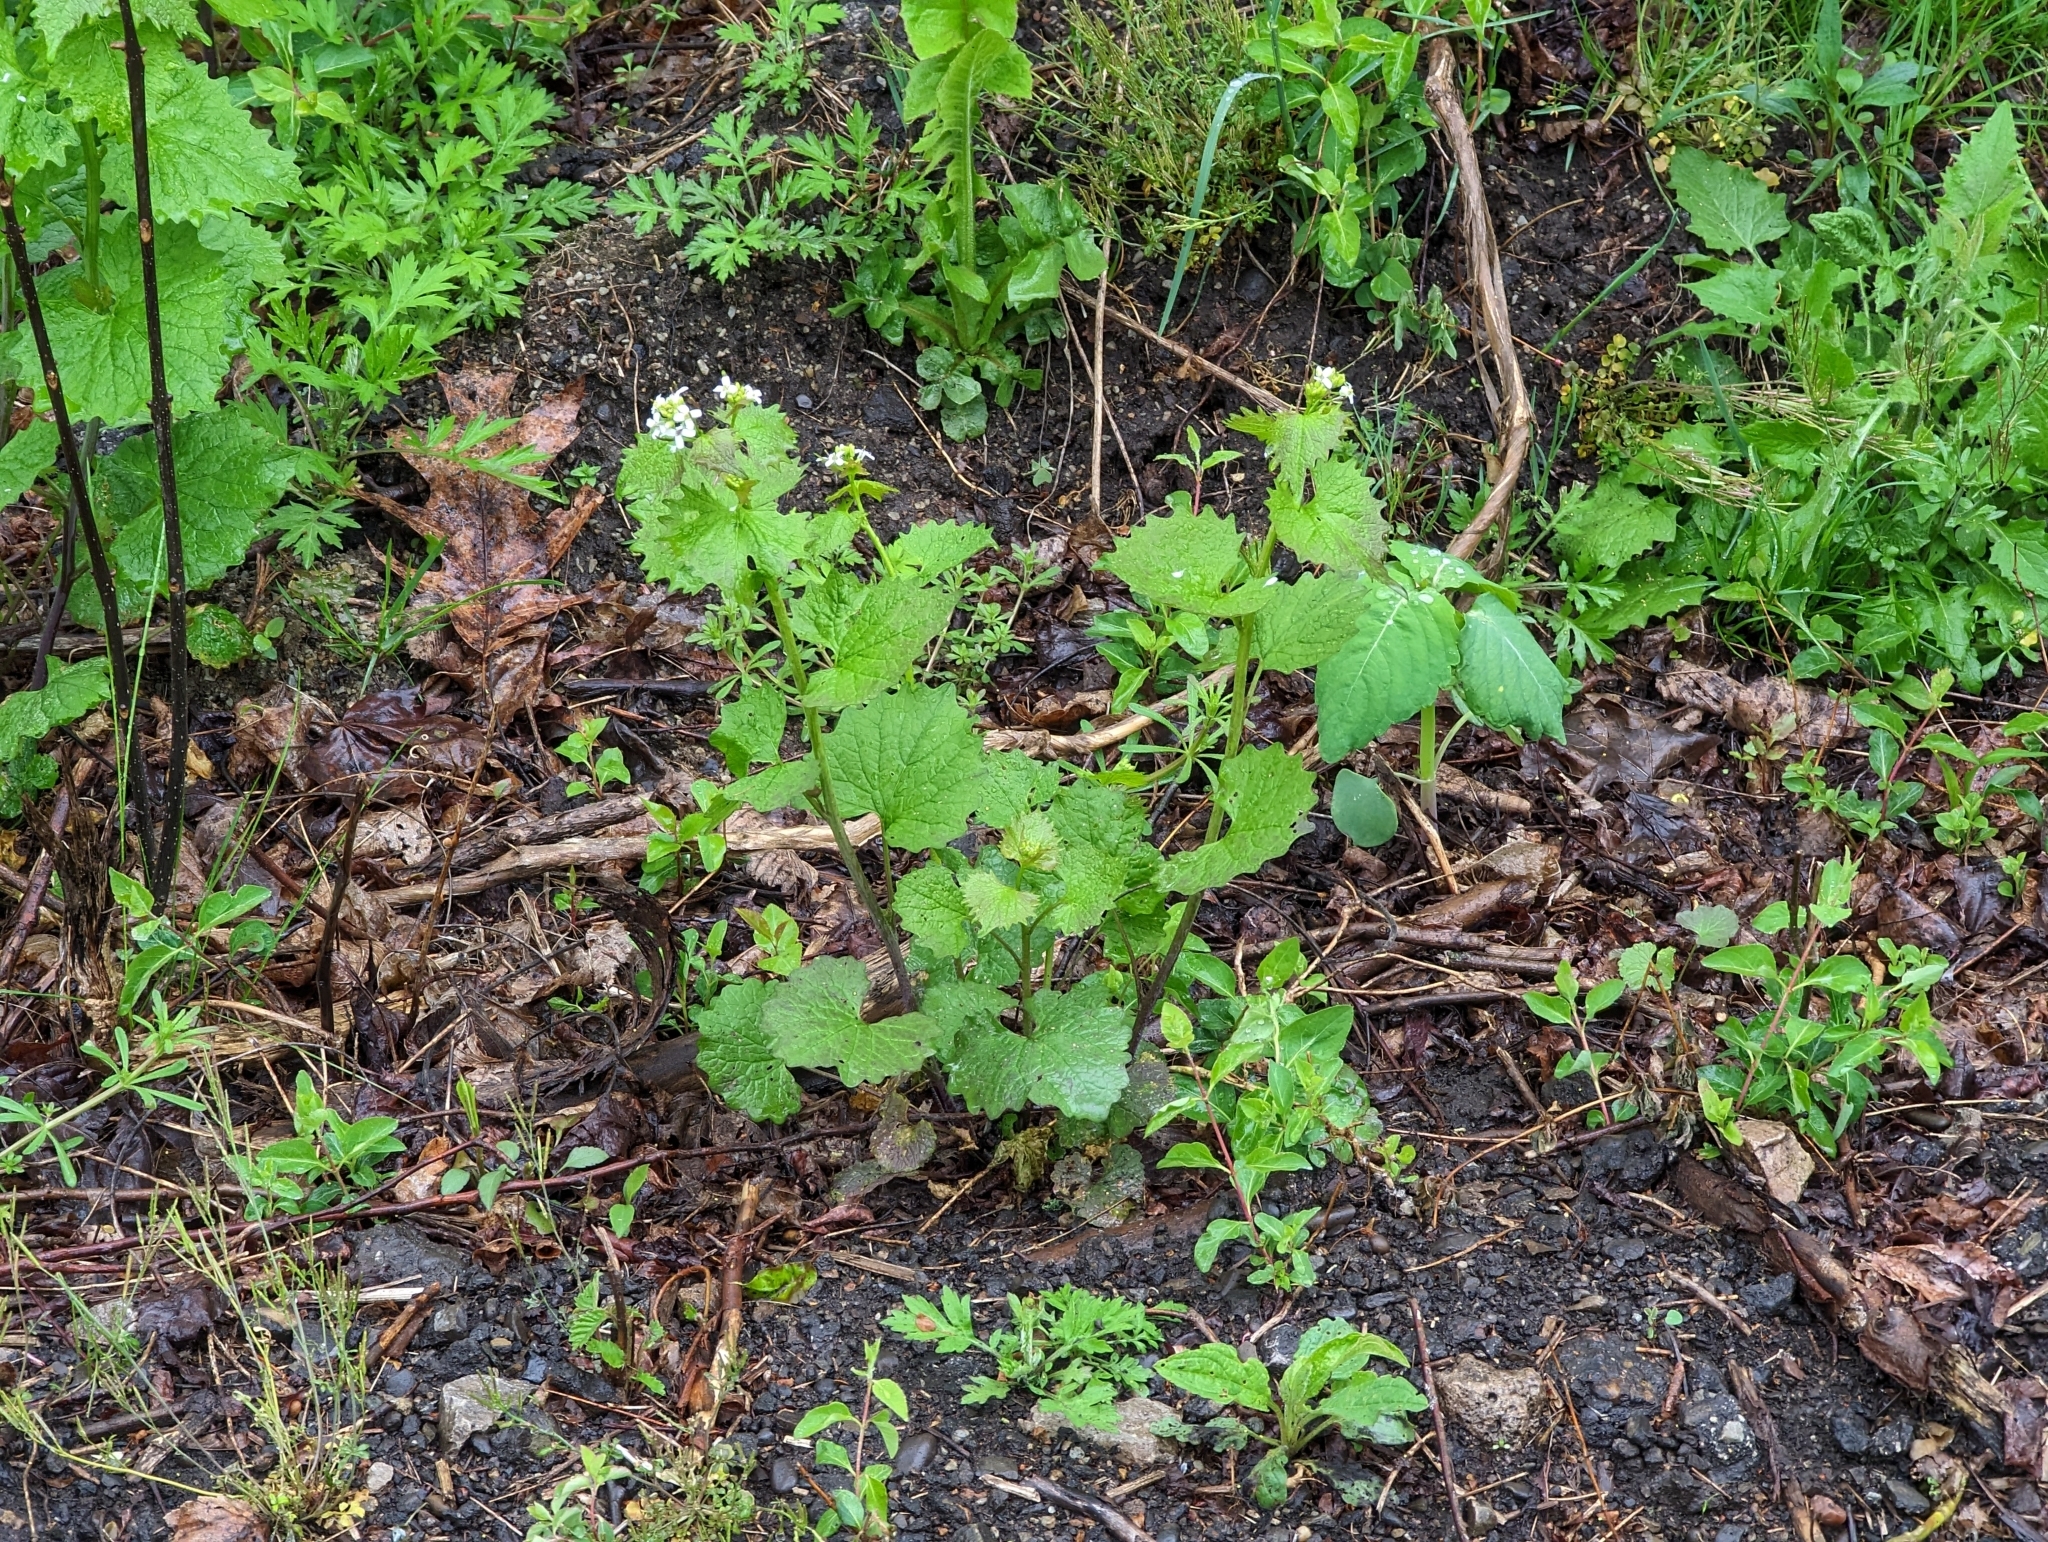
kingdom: Plantae
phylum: Tracheophyta
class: Magnoliopsida
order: Brassicales
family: Brassicaceae
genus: Alliaria
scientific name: Alliaria petiolata
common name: Garlic mustard
